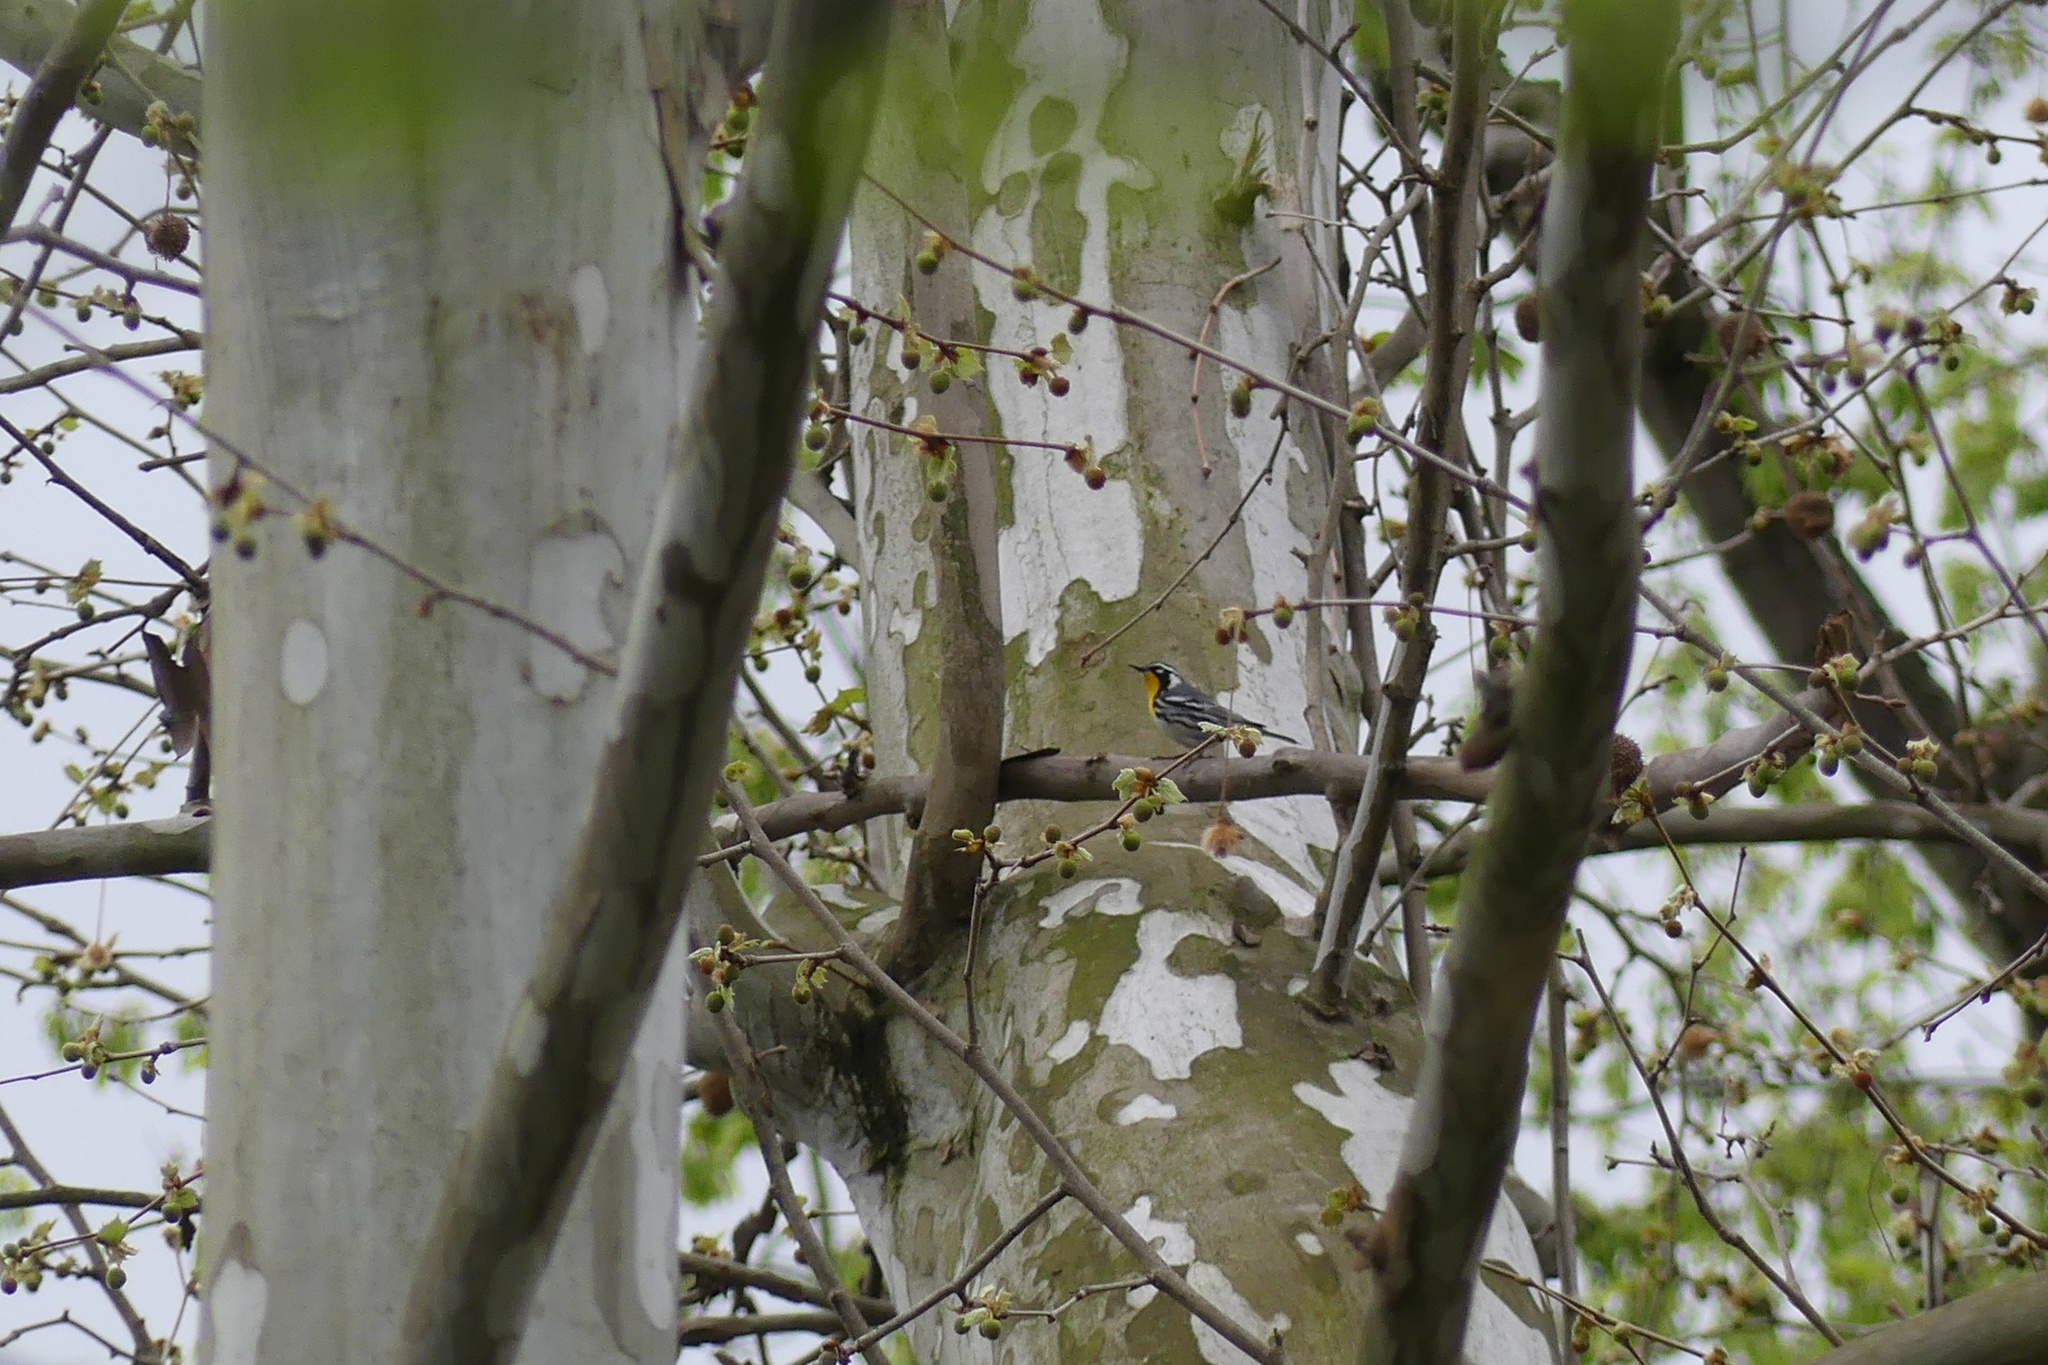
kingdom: Animalia
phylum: Chordata
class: Aves
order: Passeriformes
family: Parulidae
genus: Setophaga
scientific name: Setophaga dominica
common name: Yellow-throated warbler
